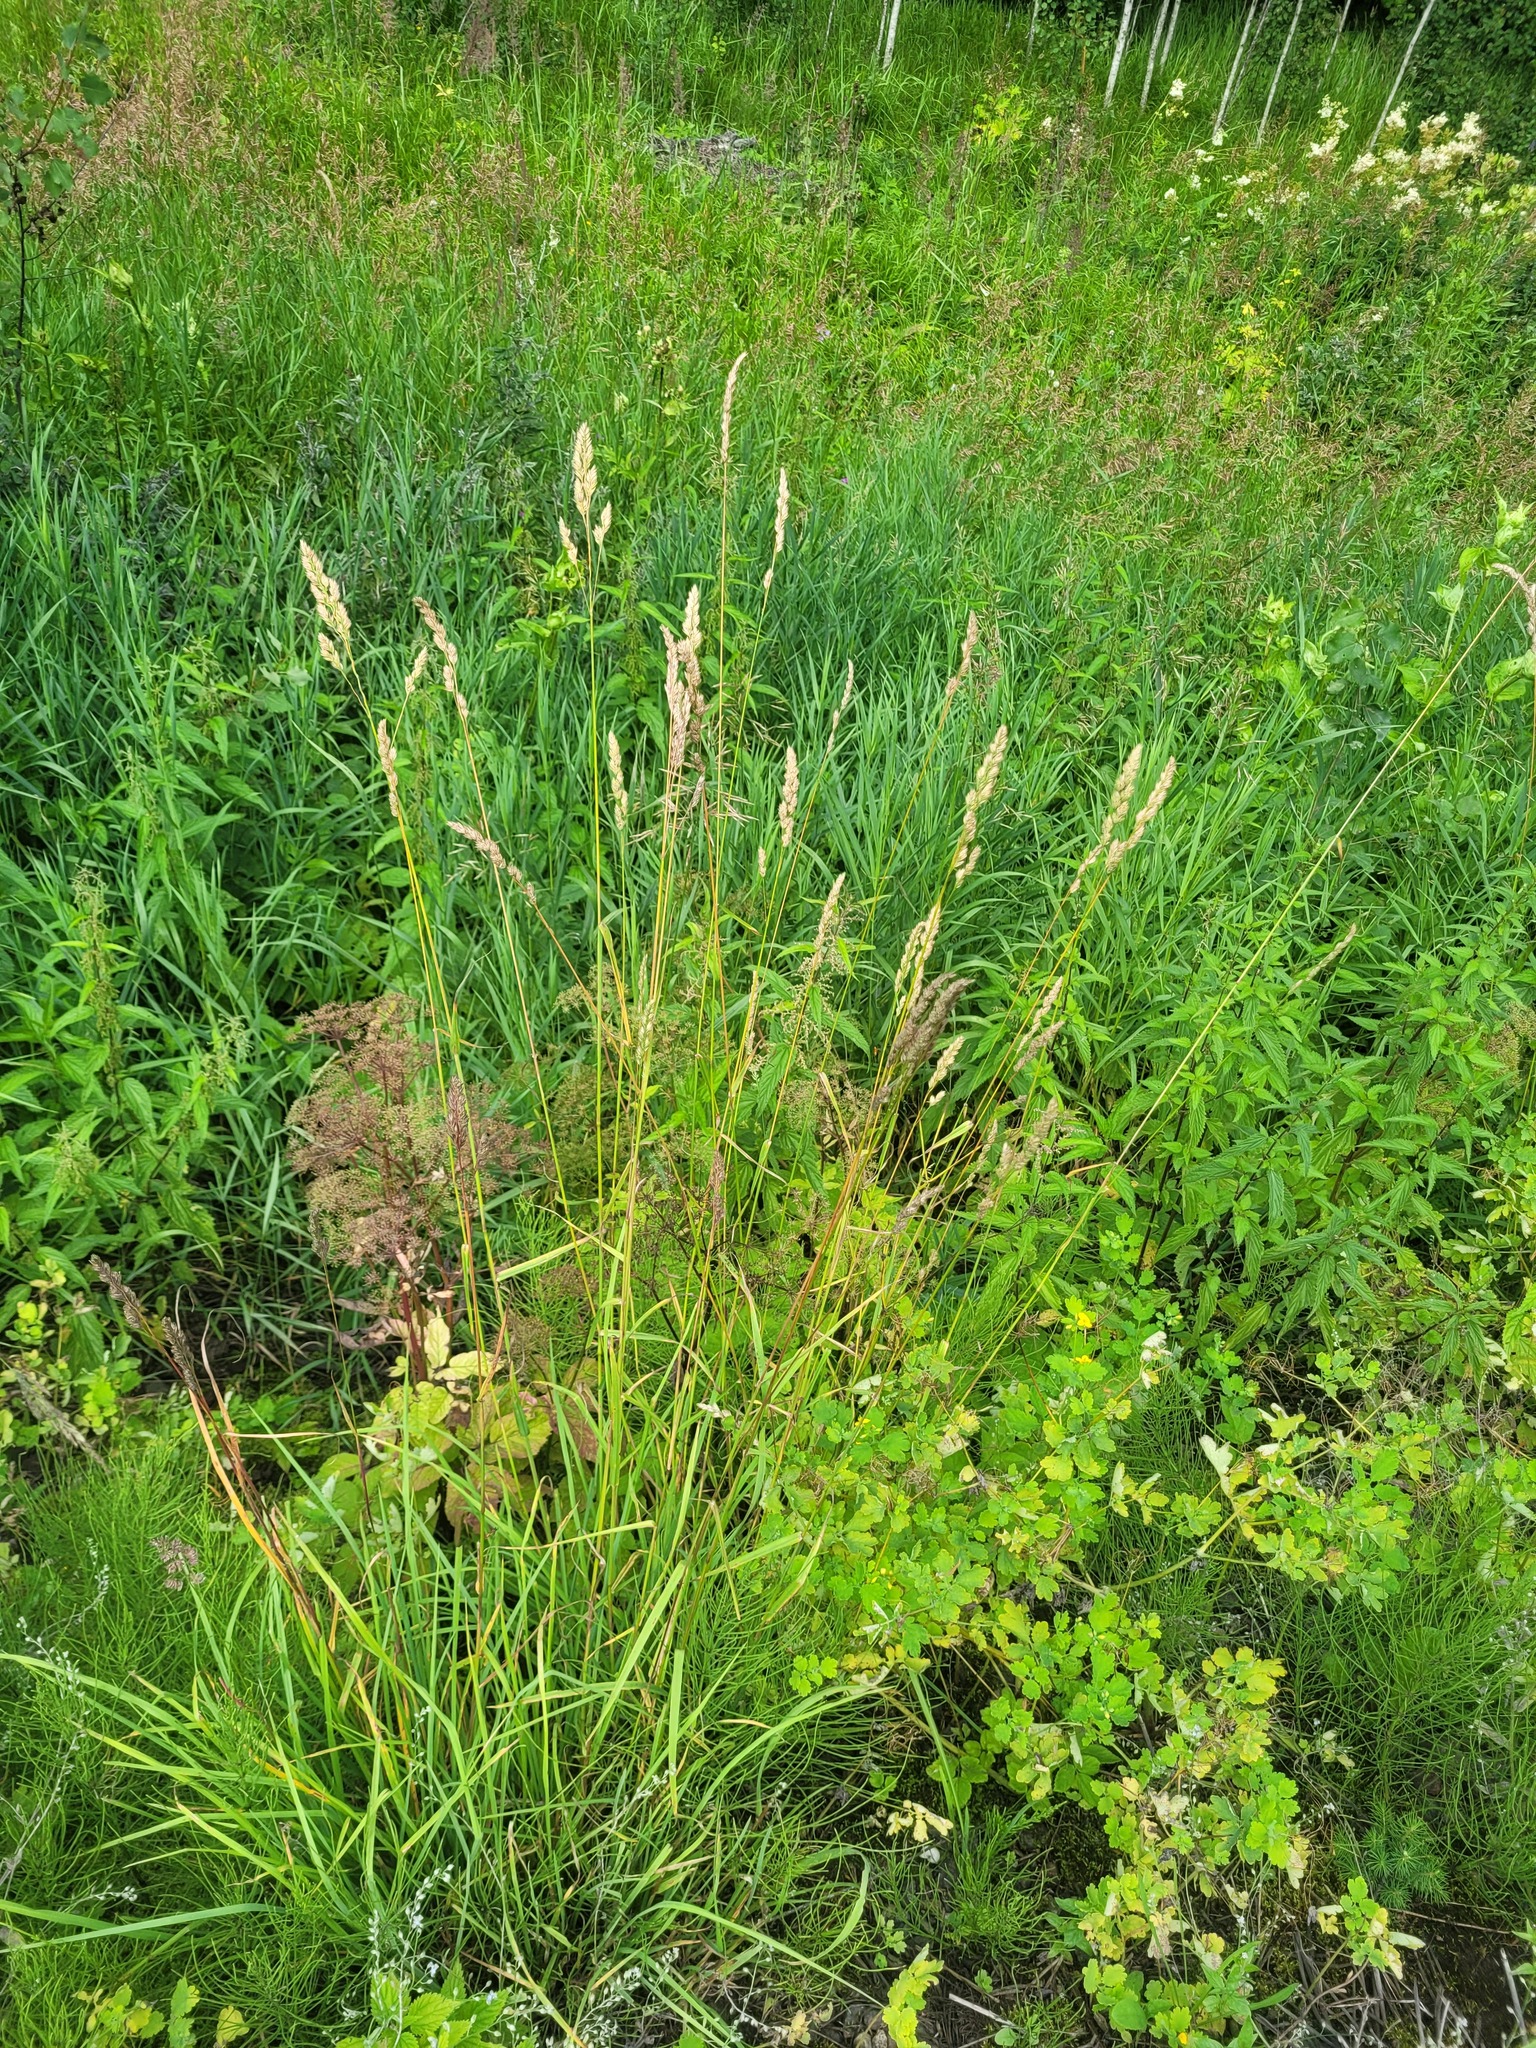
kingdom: Plantae
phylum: Tracheophyta
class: Liliopsida
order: Poales
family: Poaceae
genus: Dactylis
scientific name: Dactylis glomerata
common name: Orchardgrass
